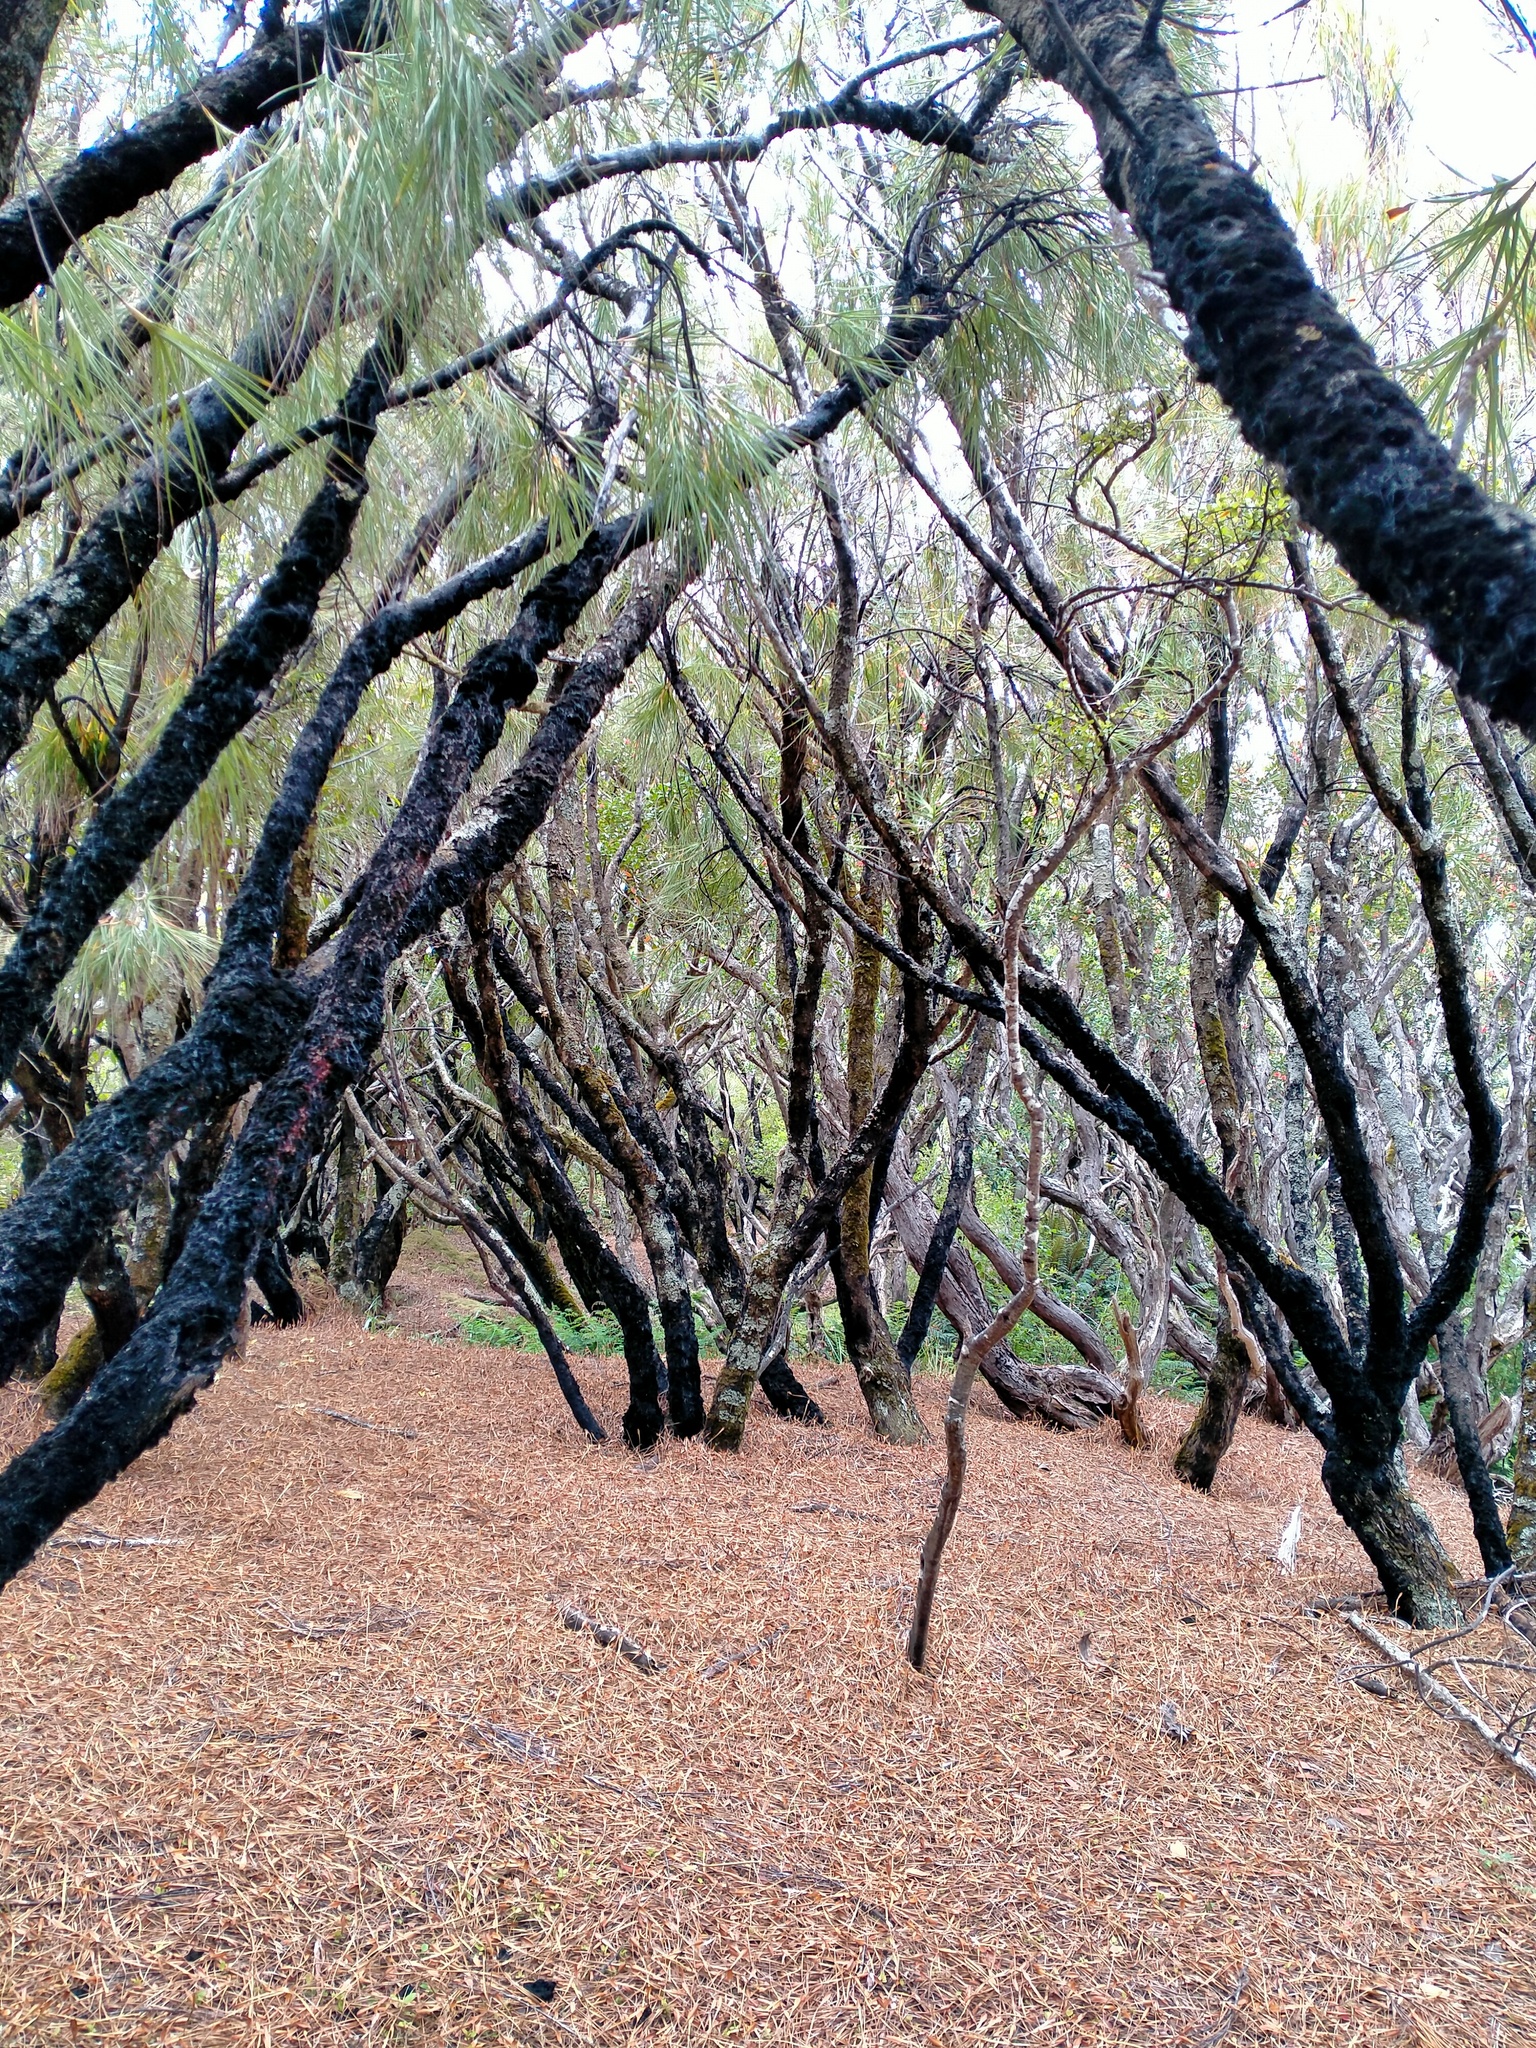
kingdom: Plantae
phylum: Tracheophyta
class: Magnoliopsida
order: Ericales
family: Ericaceae
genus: Dracophyllum
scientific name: Dracophyllum longifolium
